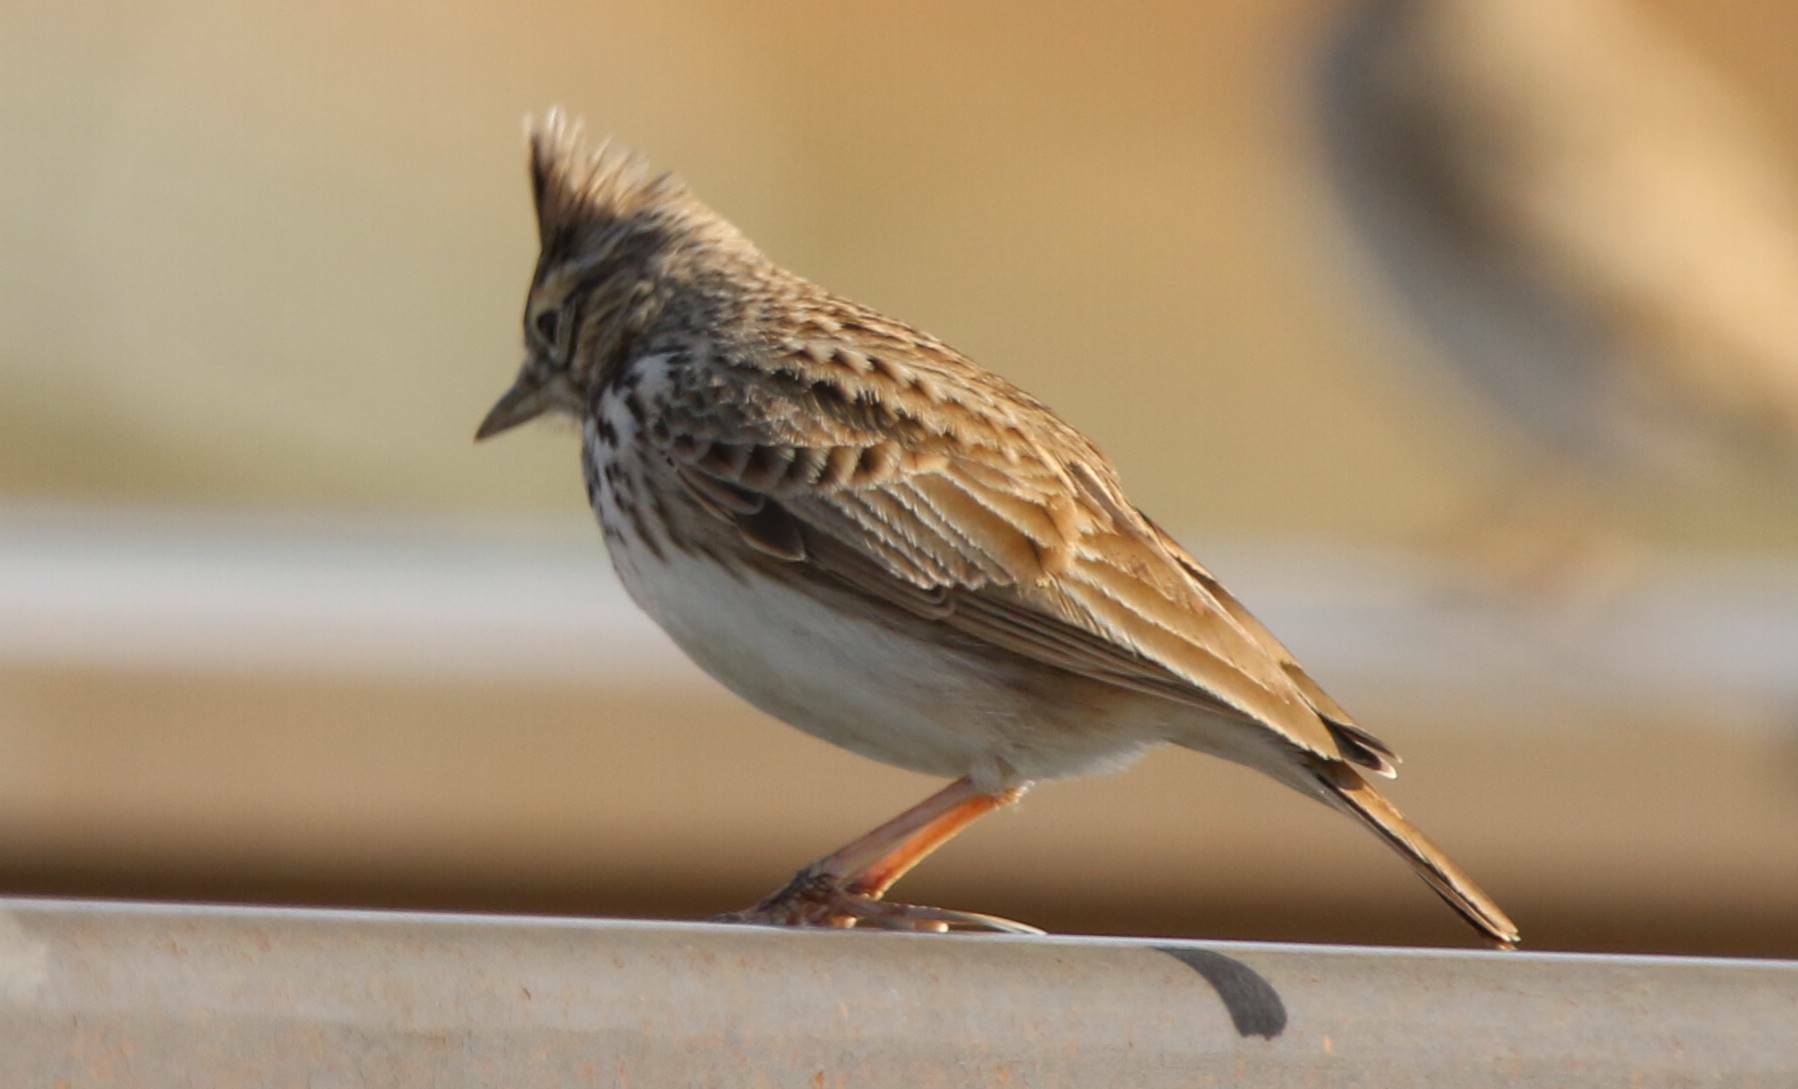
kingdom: Animalia
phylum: Chordata
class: Aves
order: Passeriformes
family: Alaudidae
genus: Galerida
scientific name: Galerida theklae
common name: Thekla lark
